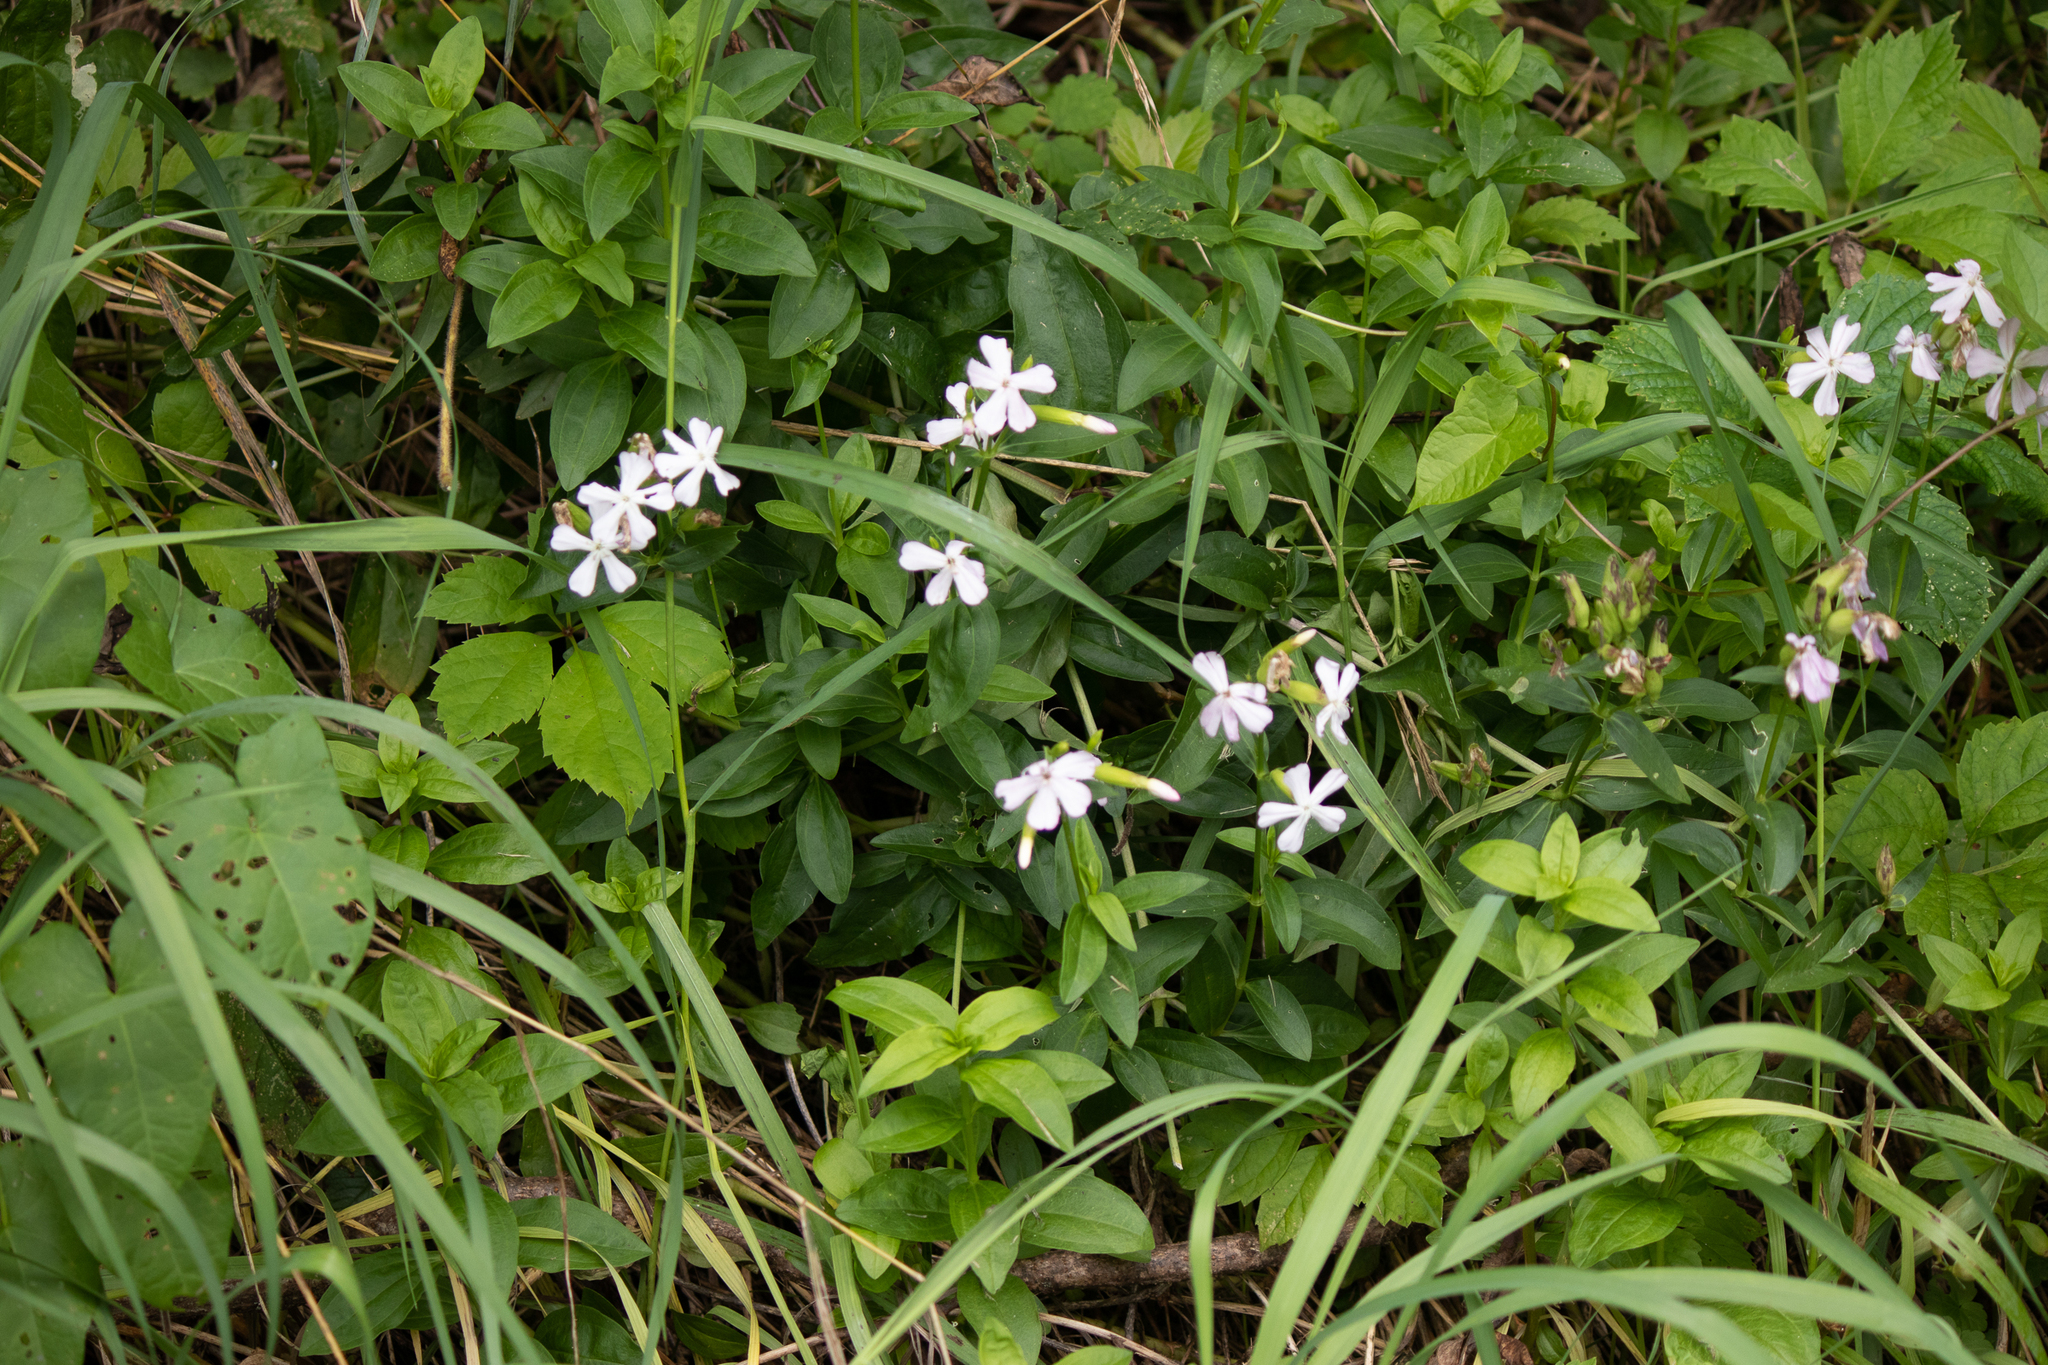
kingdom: Plantae
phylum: Tracheophyta
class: Magnoliopsida
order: Caryophyllales
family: Caryophyllaceae
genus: Saponaria
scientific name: Saponaria officinalis
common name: Soapwort
